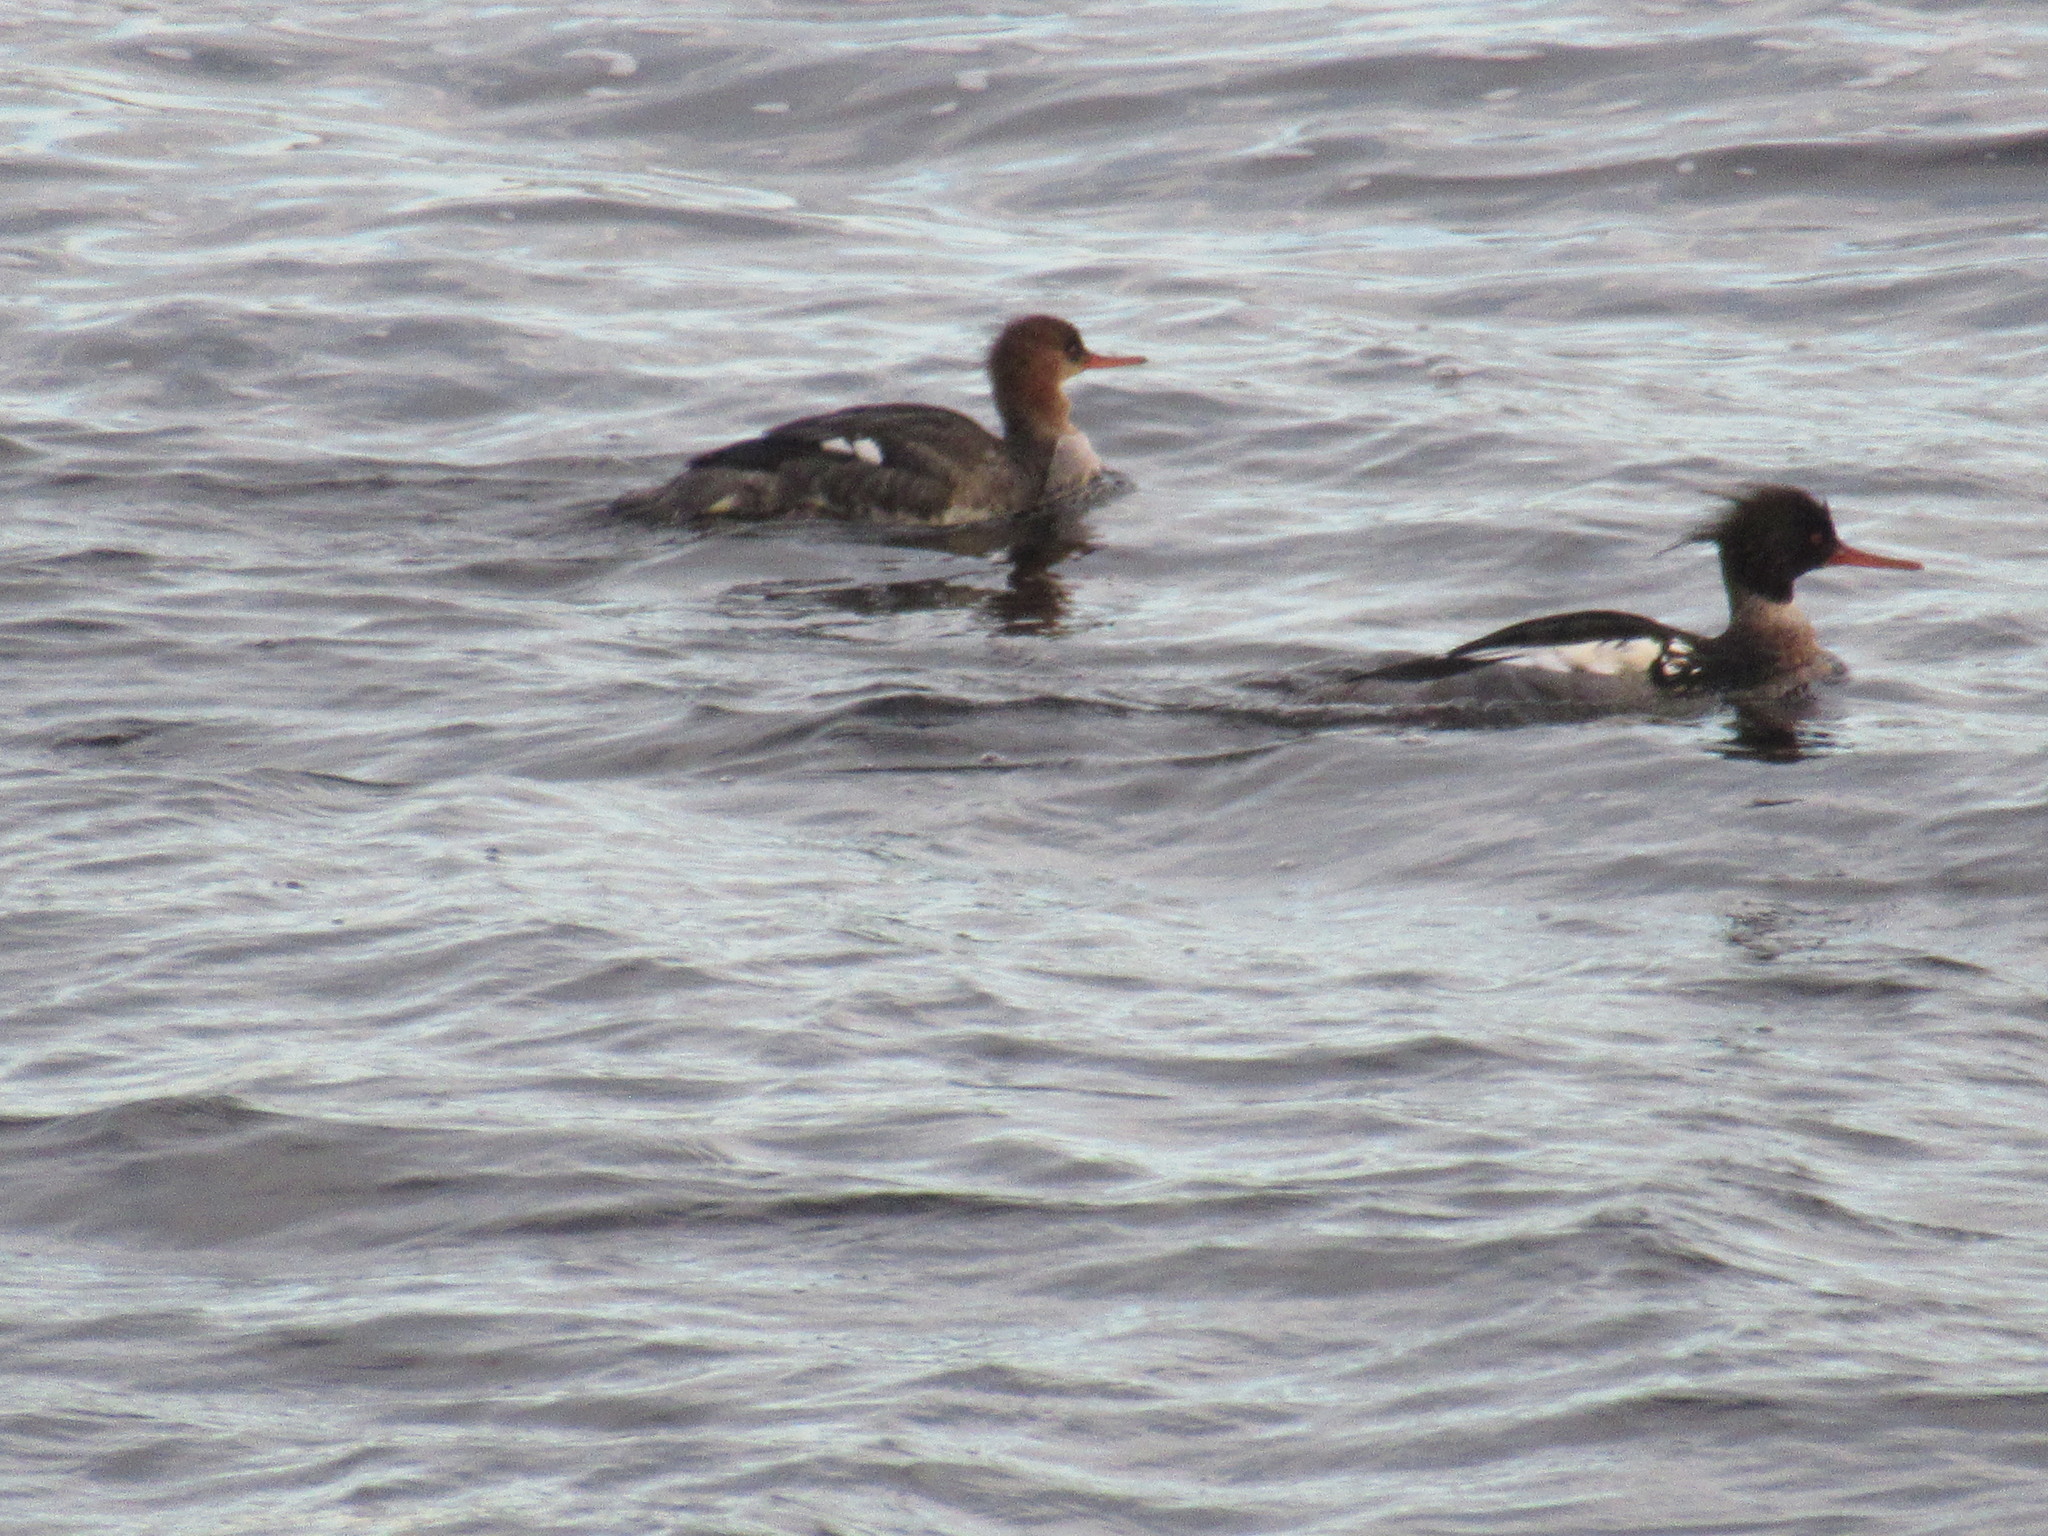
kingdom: Animalia
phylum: Chordata
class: Aves
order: Anseriformes
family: Anatidae
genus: Mergus
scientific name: Mergus serrator
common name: Red-breasted merganser
